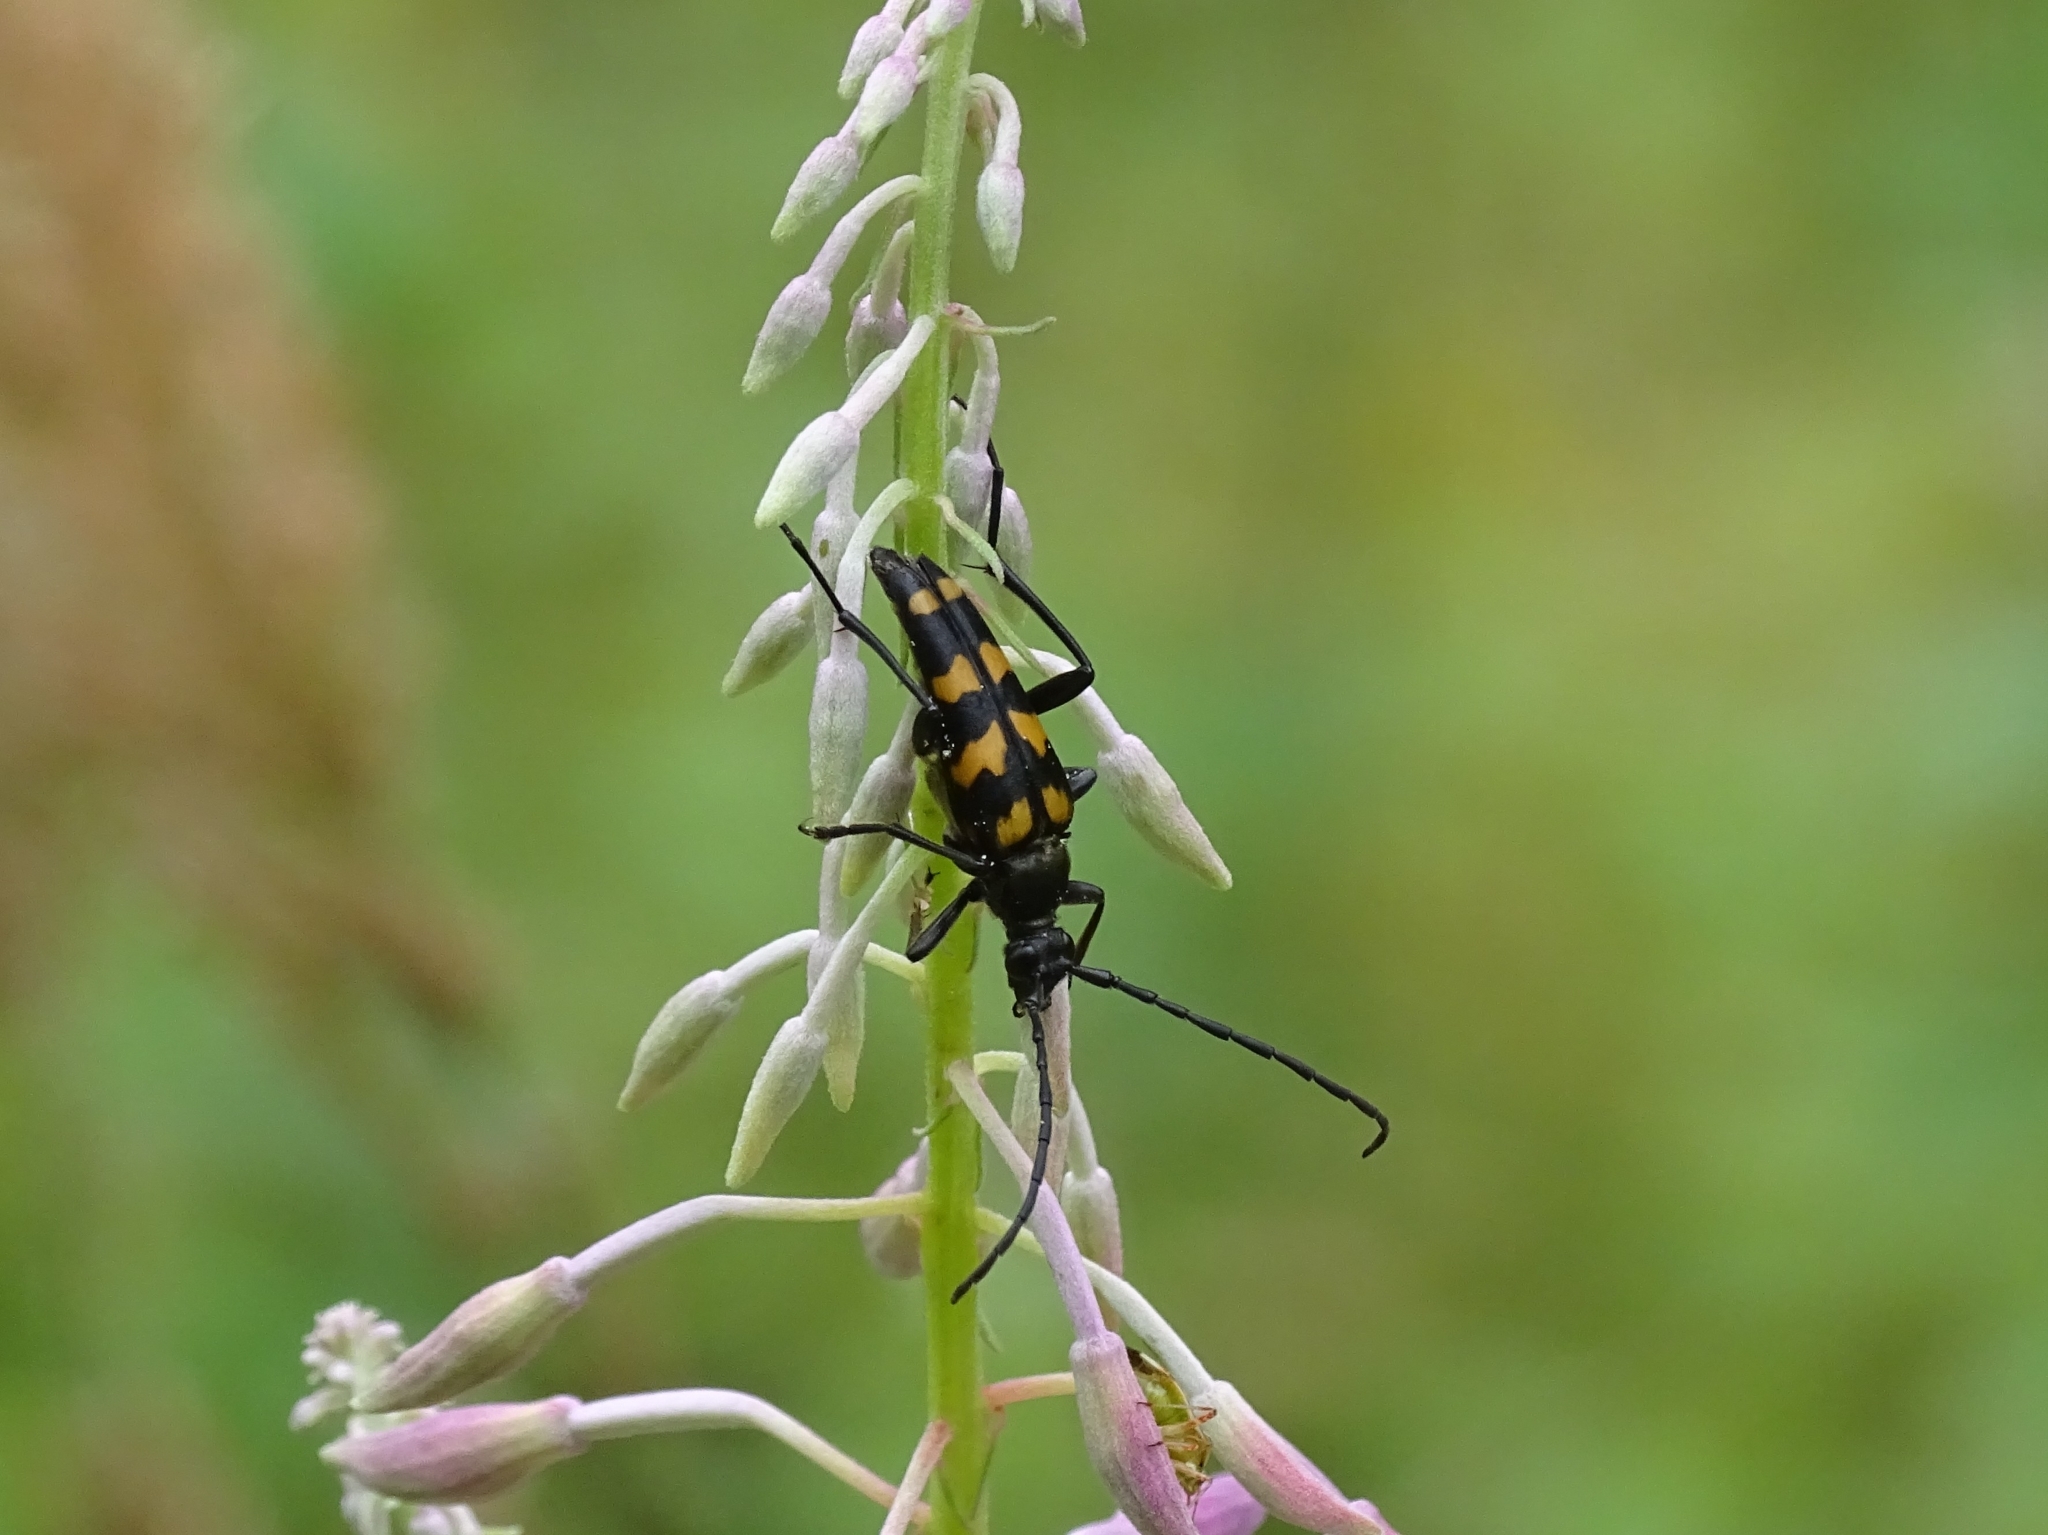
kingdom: Animalia
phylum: Arthropoda
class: Insecta
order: Coleoptera
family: Cerambycidae
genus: Leptura
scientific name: Leptura quadrifasciata
